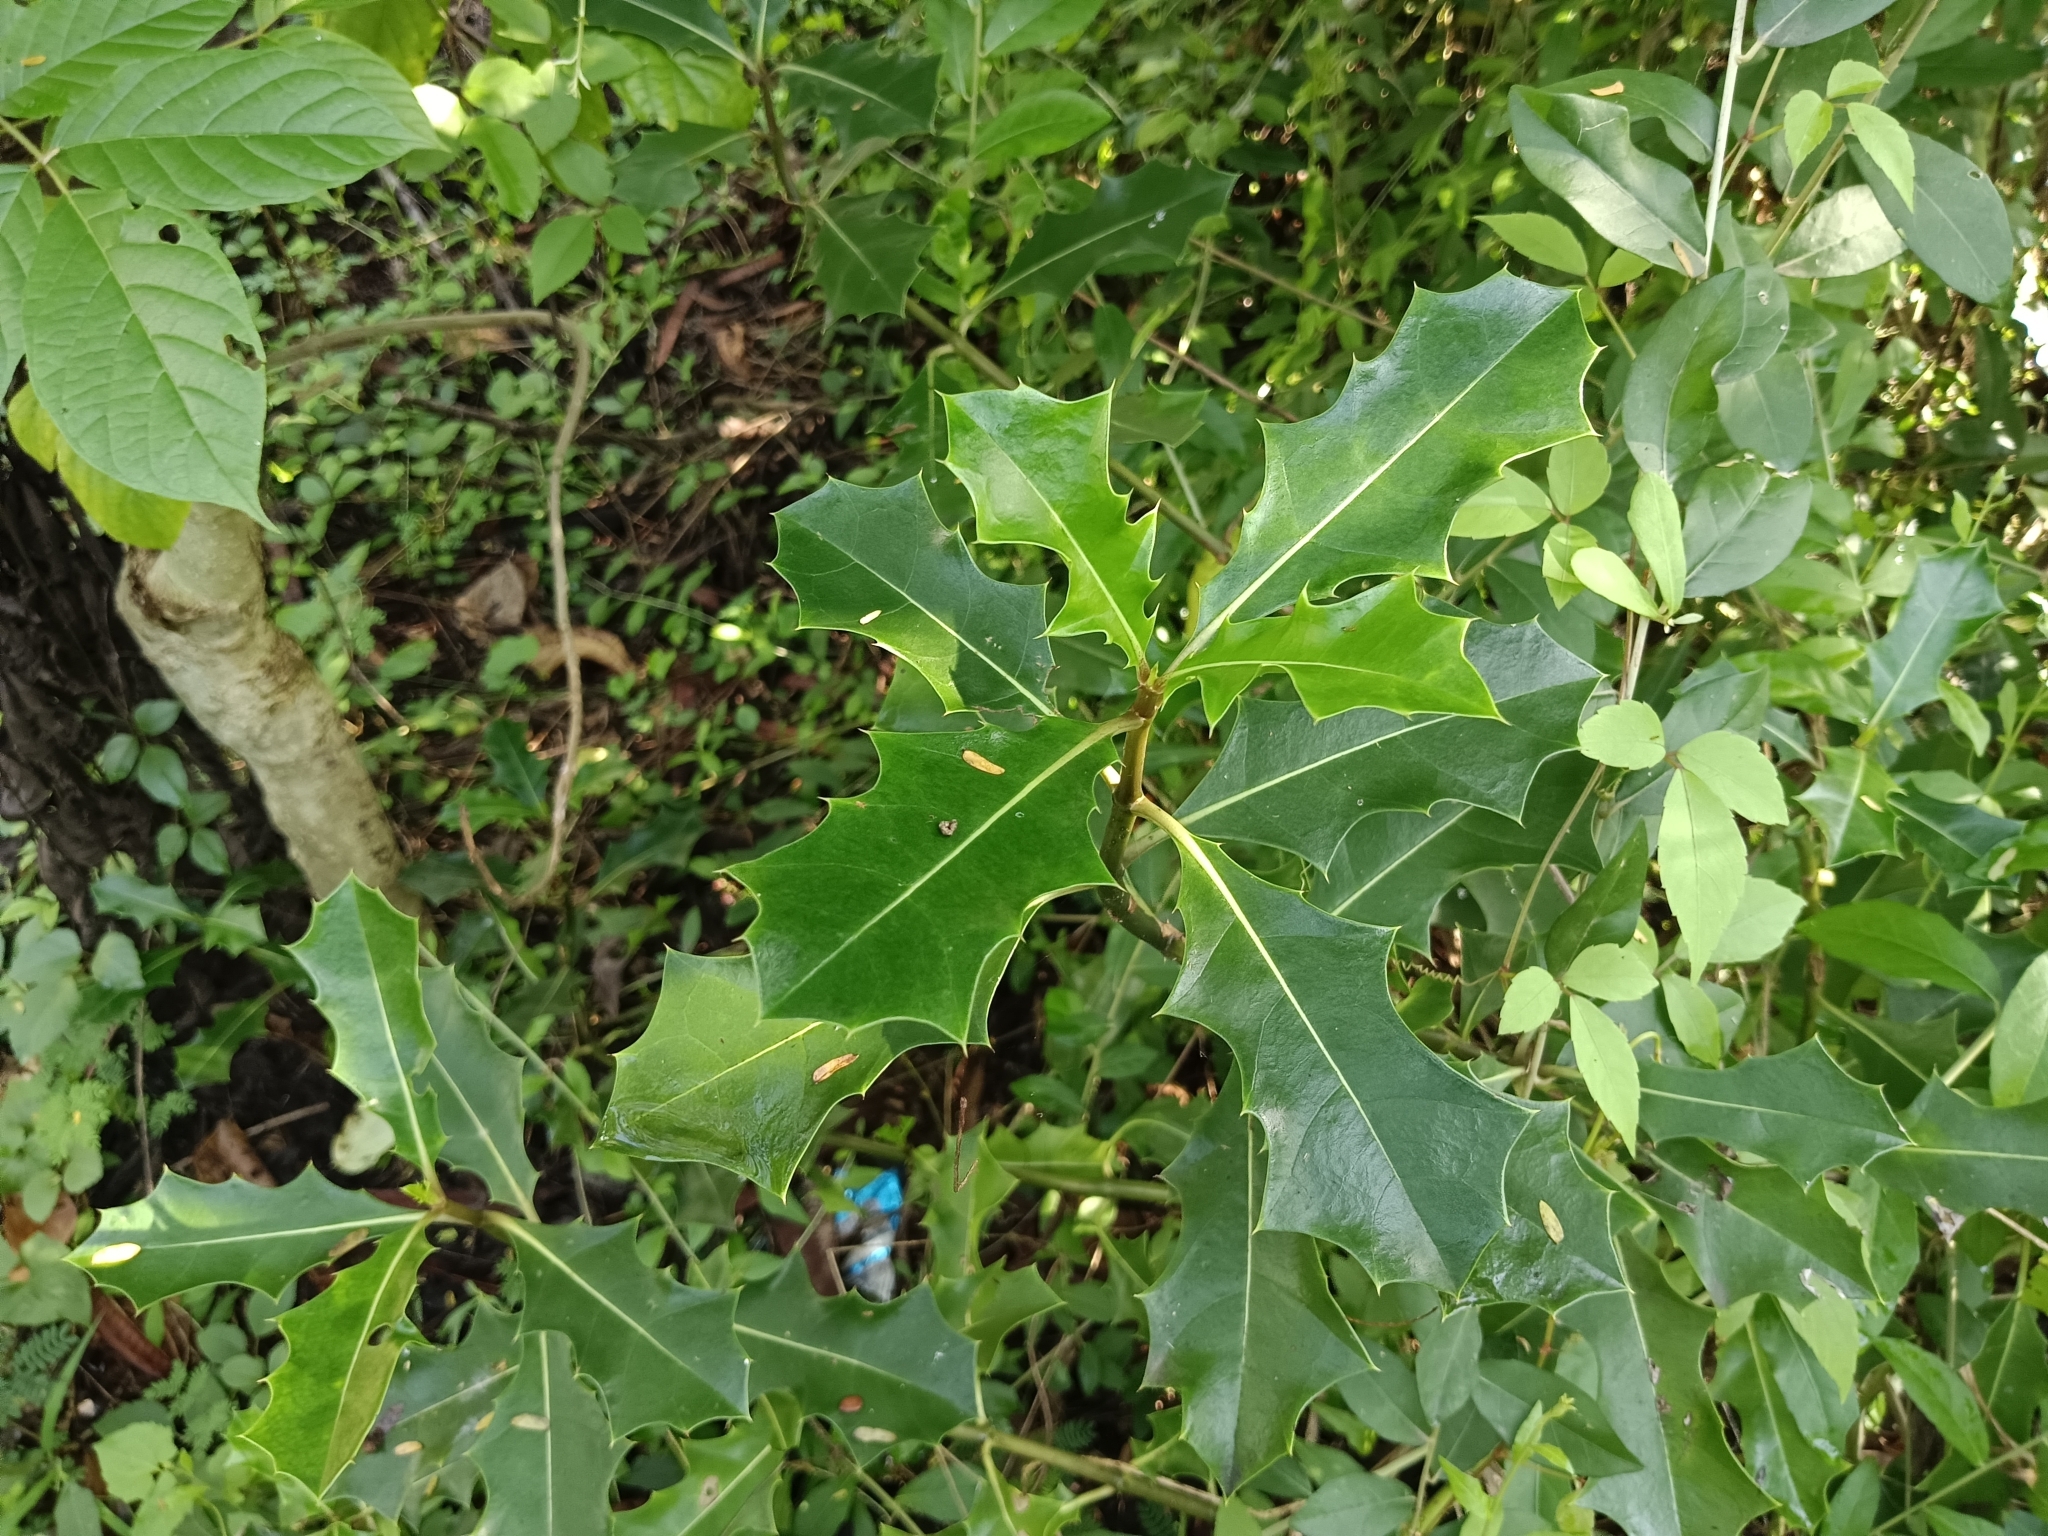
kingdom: Plantae
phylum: Tracheophyta
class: Magnoliopsida
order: Lamiales
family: Acanthaceae
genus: Acanthus
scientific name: Acanthus ilicifolius
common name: Holy mangrove
